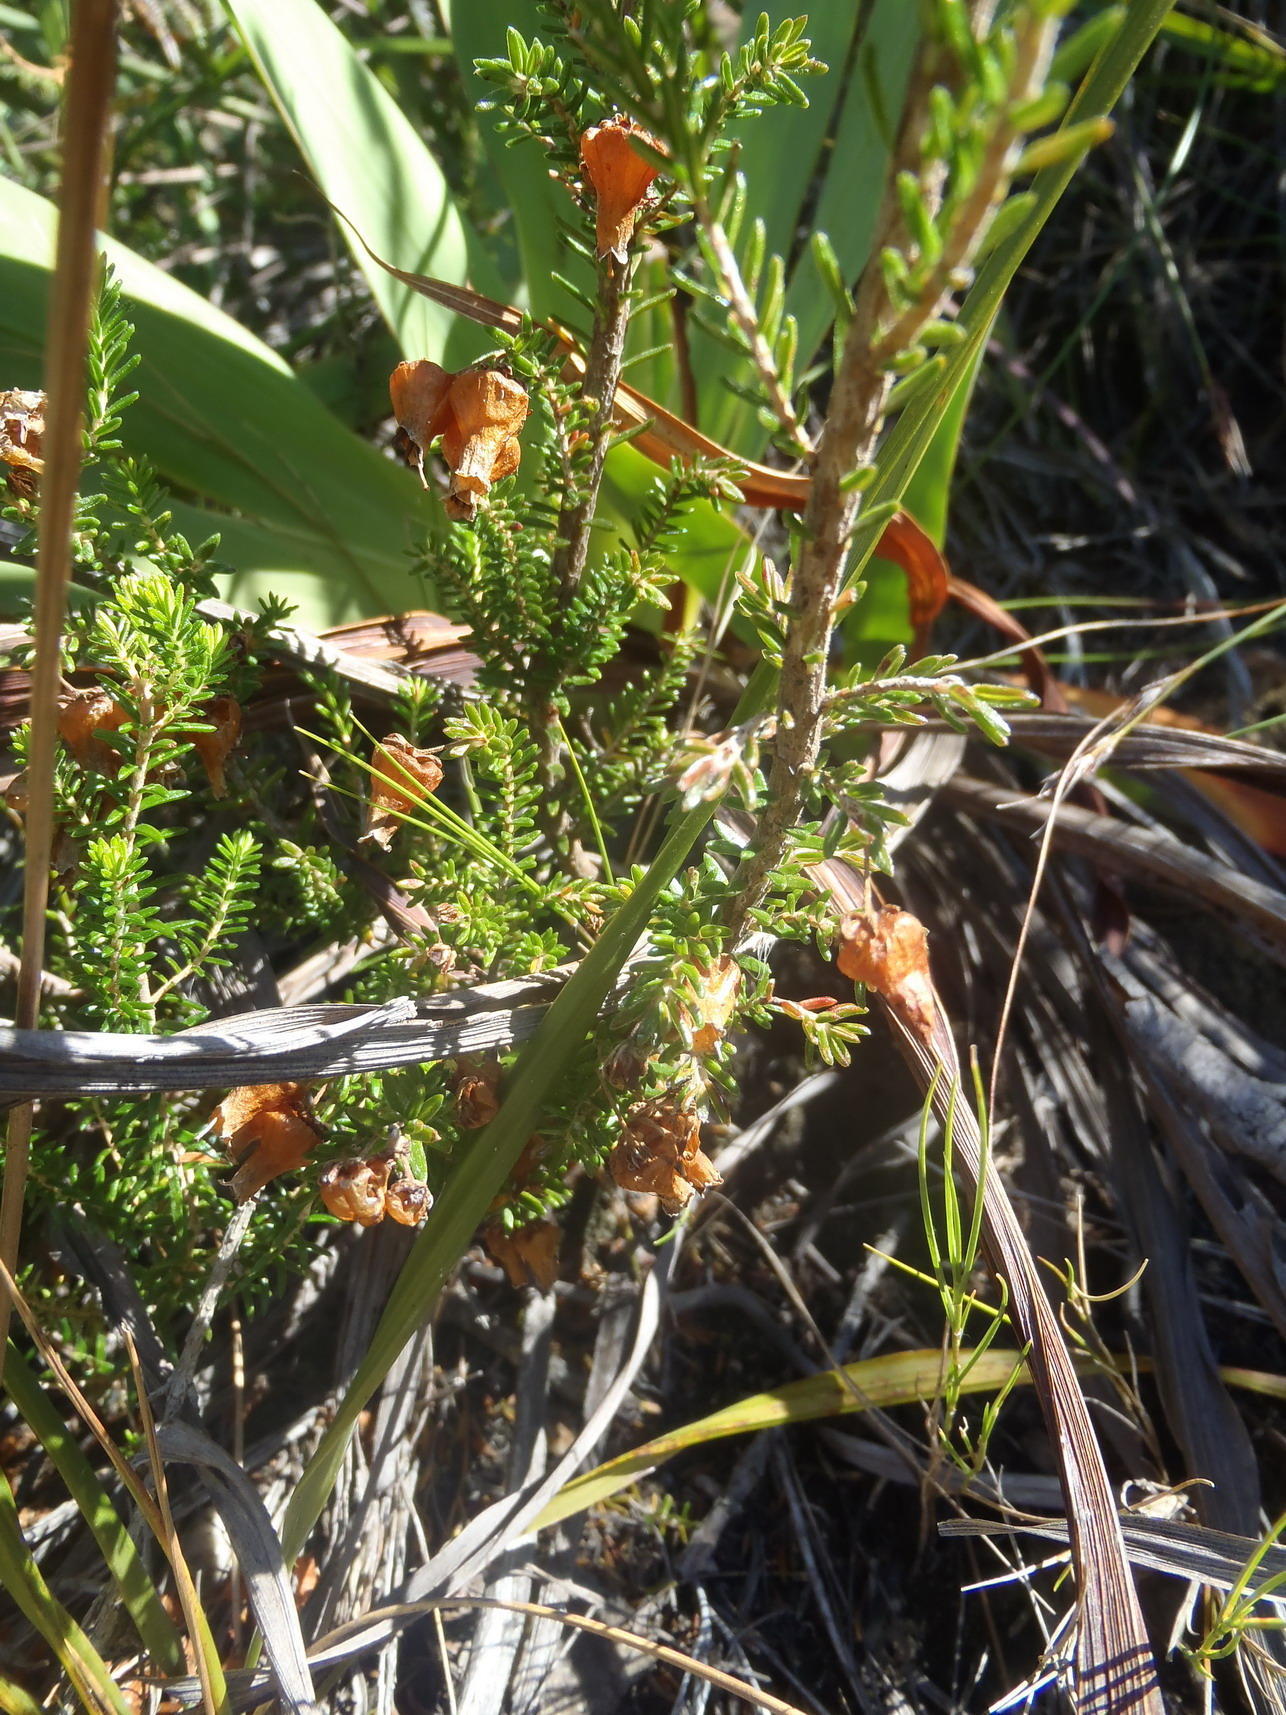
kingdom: Plantae
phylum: Tracheophyta
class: Magnoliopsida
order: Ericales
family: Ericaceae
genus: Erica
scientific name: Erica glomiflora
